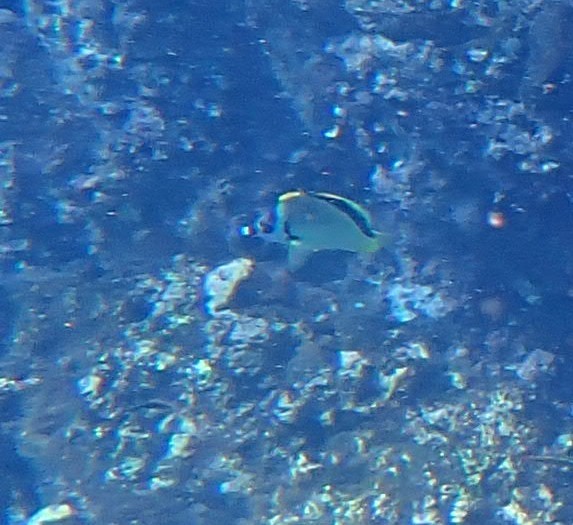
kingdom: Animalia
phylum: Chordata
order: Perciformes
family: Chaetodontidae
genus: Johnrandallia
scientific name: Johnrandallia nigrirostris
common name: Barberfish
